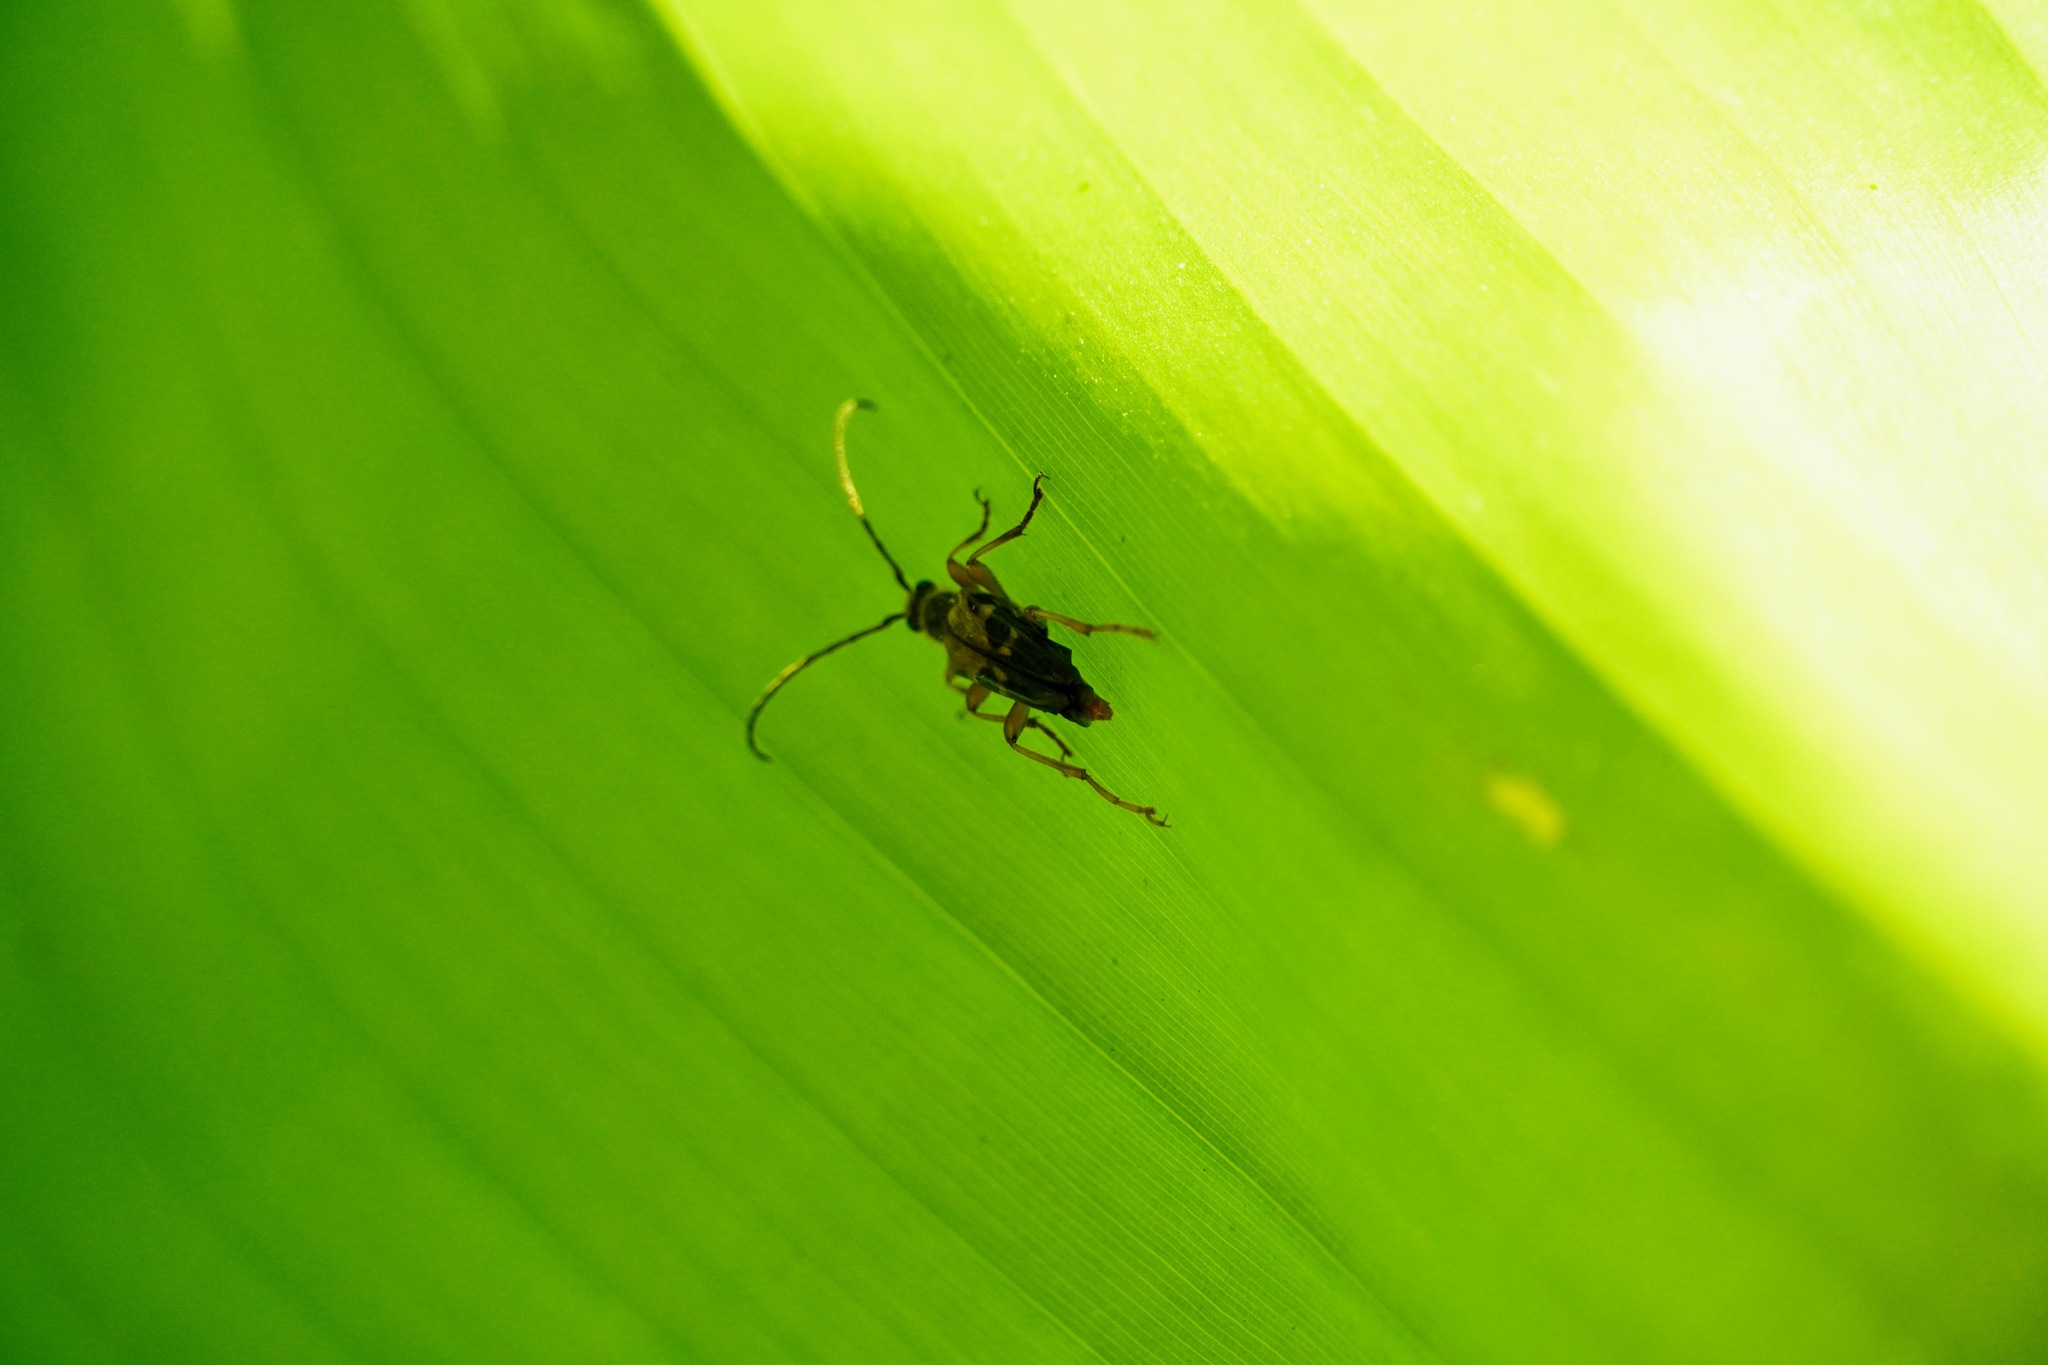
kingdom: Animalia
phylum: Arthropoda
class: Insecta
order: Coleoptera
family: Cerambycidae
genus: Xestoleptura
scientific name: Xestoleptura crassipes
